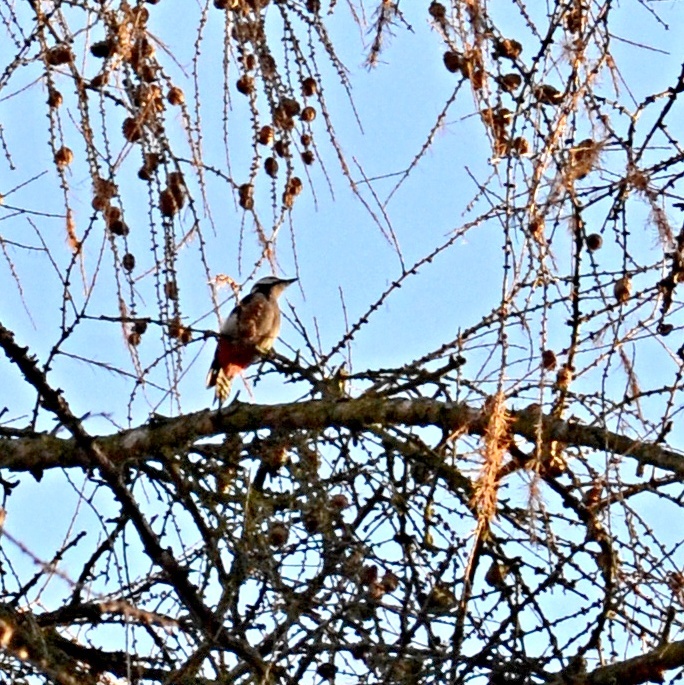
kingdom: Animalia
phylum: Chordata
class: Aves
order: Piciformes
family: Picidae
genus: Dendrocopos
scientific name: Dendrocopos major
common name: Great spotted woodpecker
